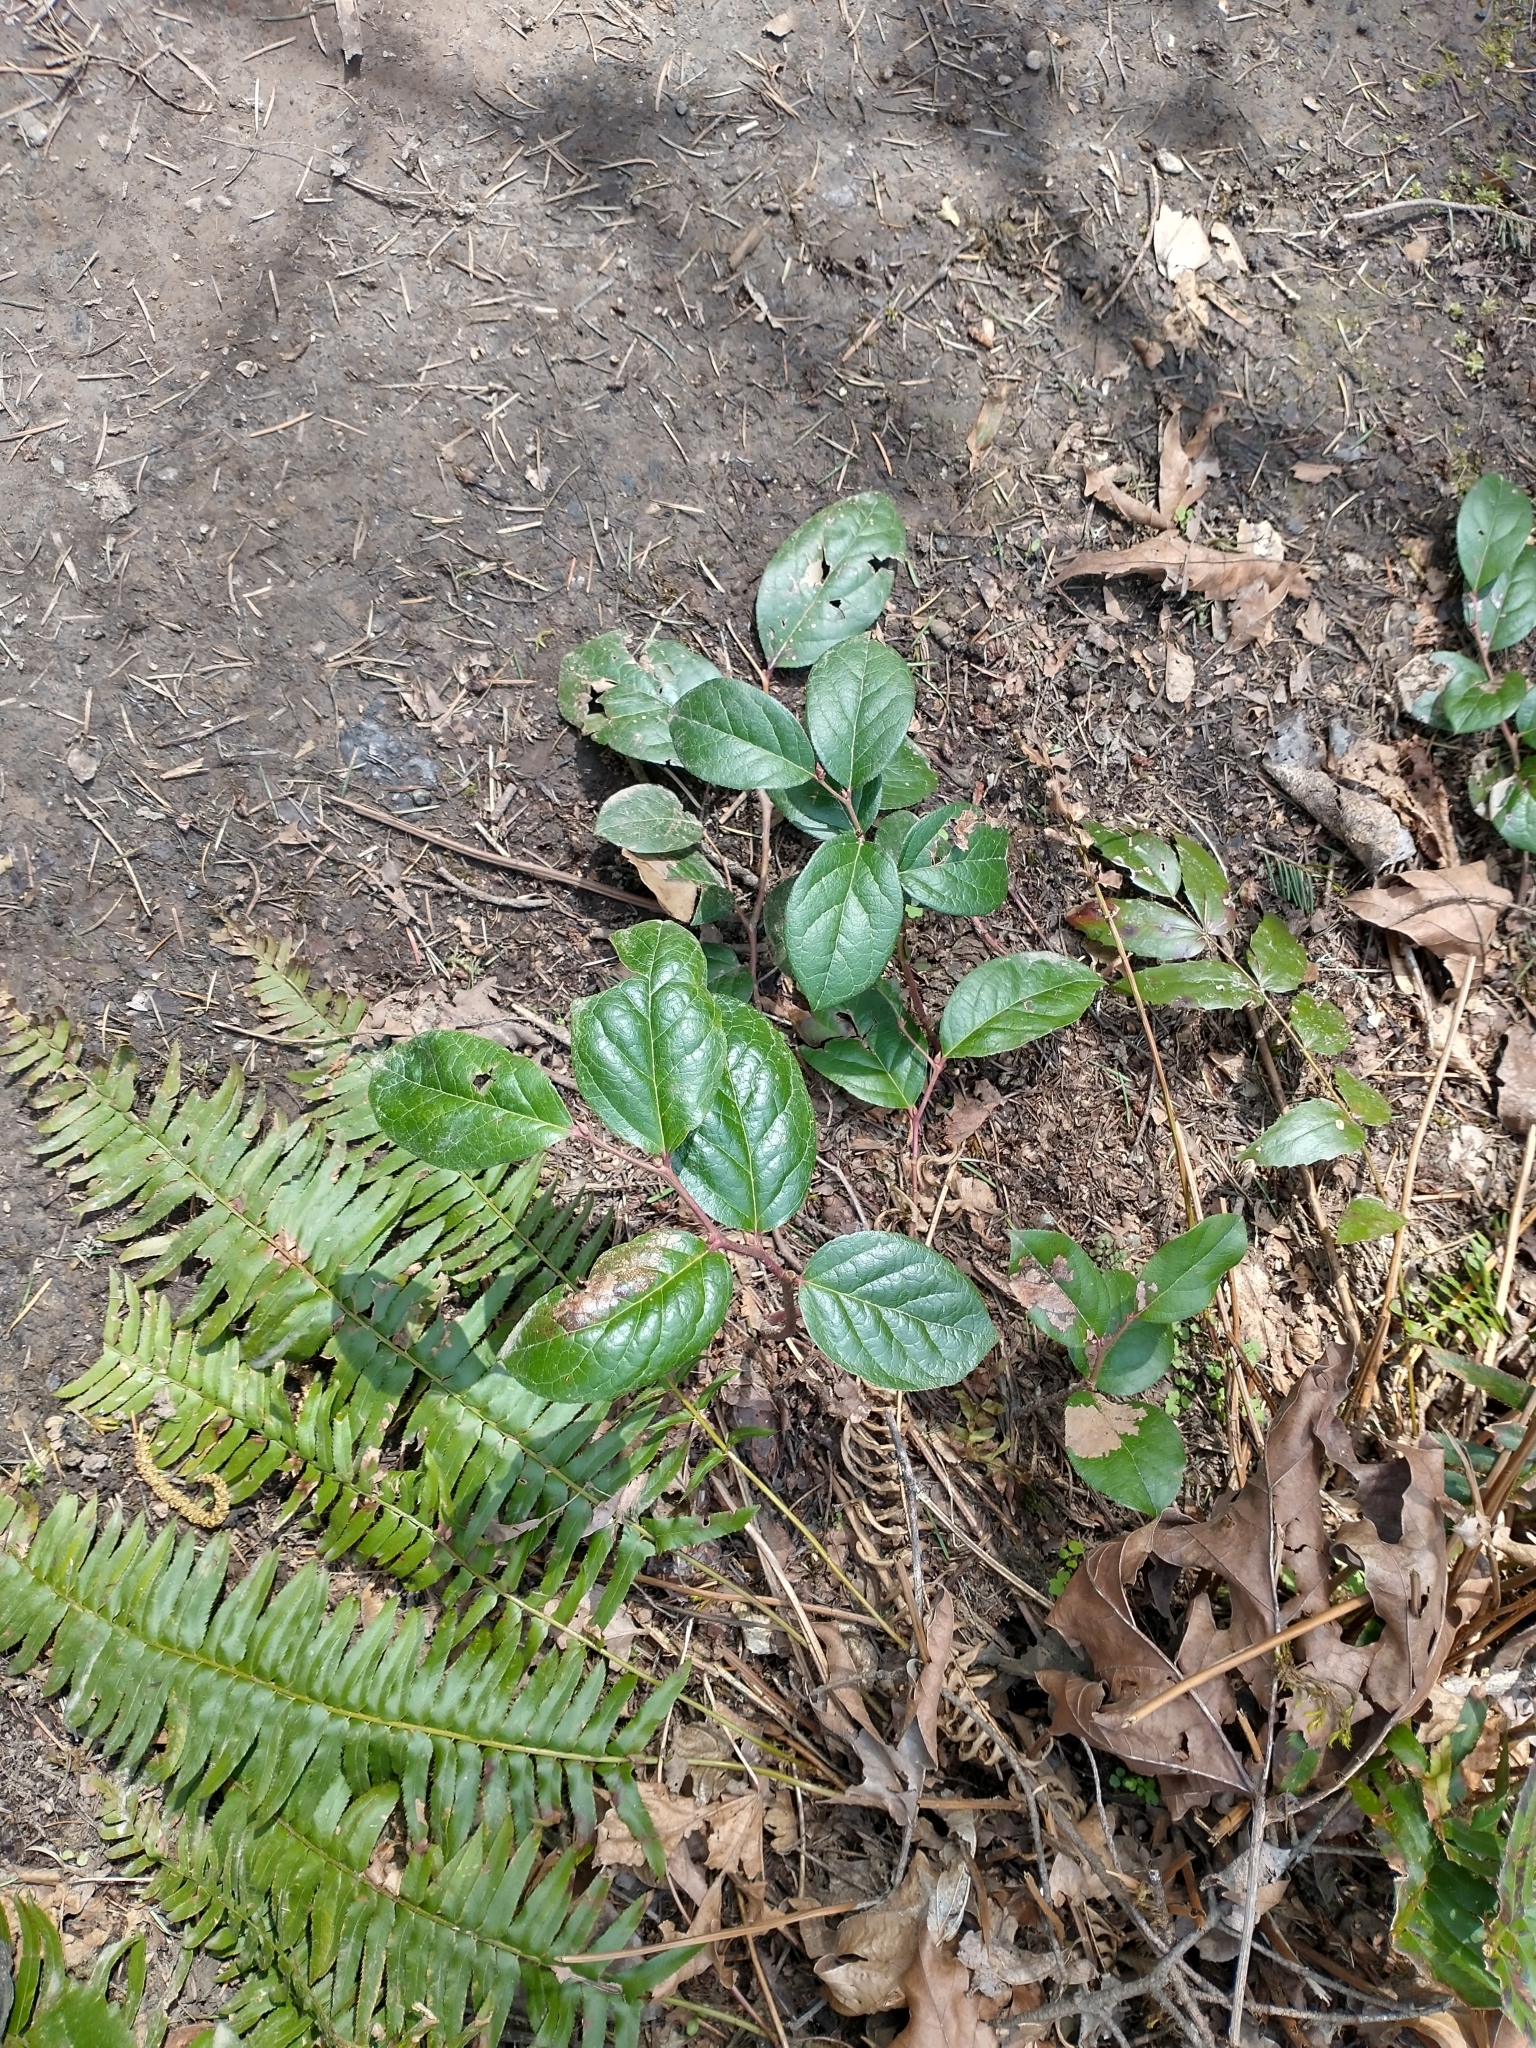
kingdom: Plantae
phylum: Tracheophyta
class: Magnoliopsida
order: Ericales
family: Ericaceae
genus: Gaultheria
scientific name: Gaultheria shallon
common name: Shallon
